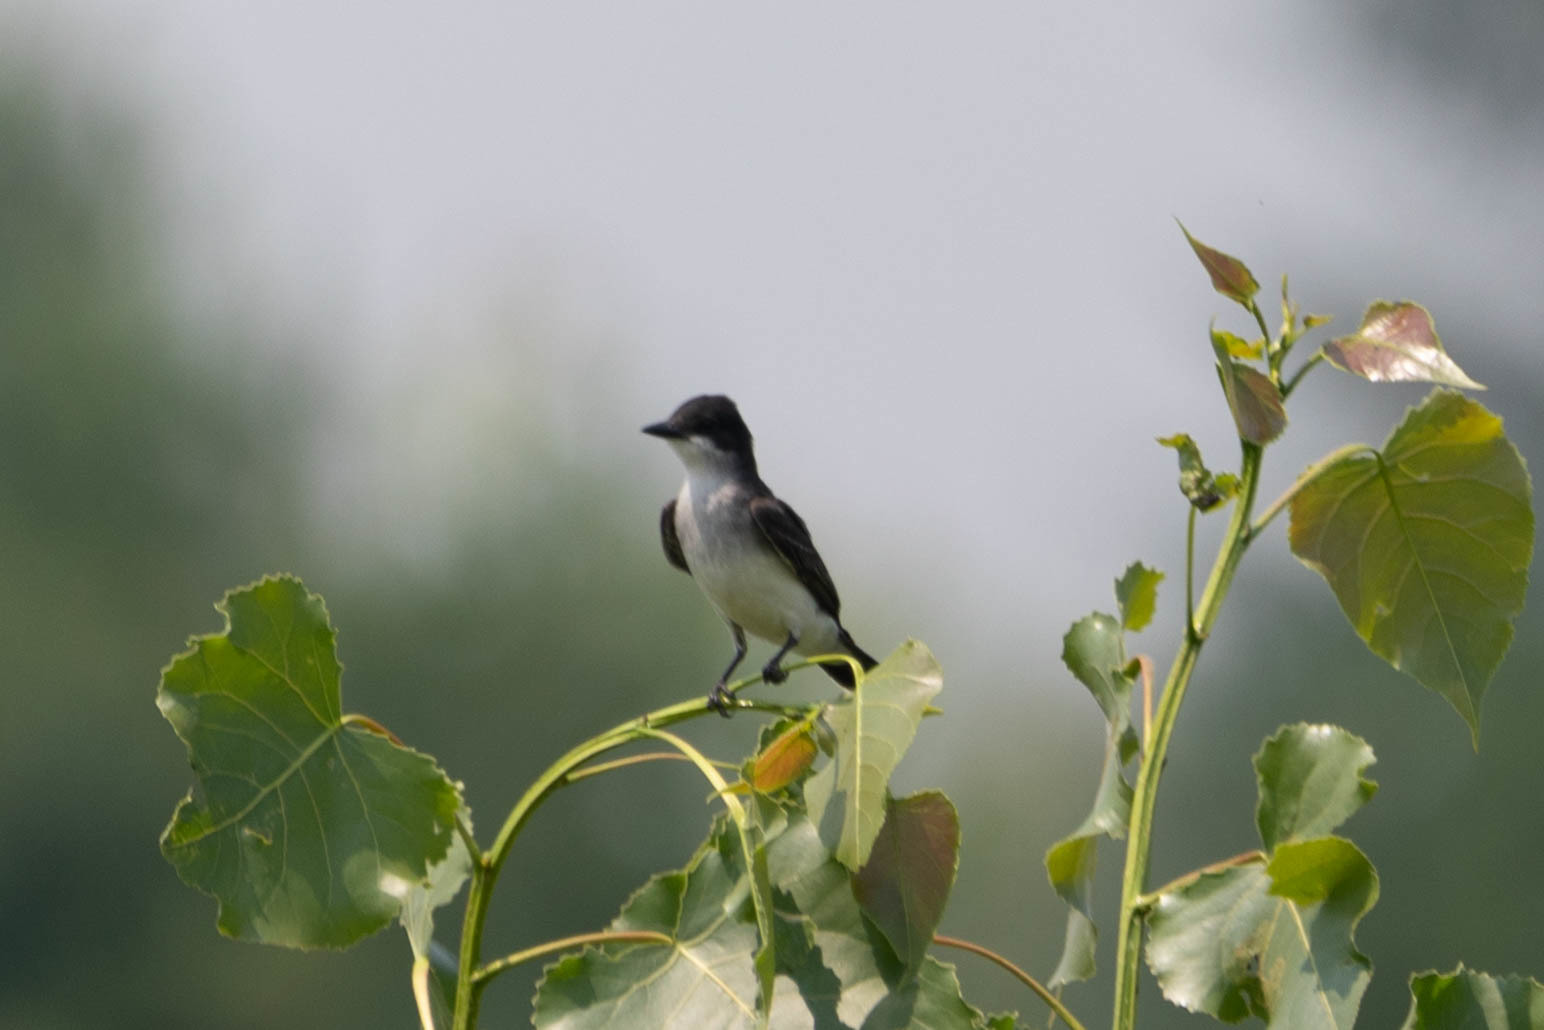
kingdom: Animalia
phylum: Chordata
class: Aves
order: Passeriformes
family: Tyrannidae
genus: Tyrannus
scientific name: Tyrannus tyrannus
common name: Eastern kingbird
